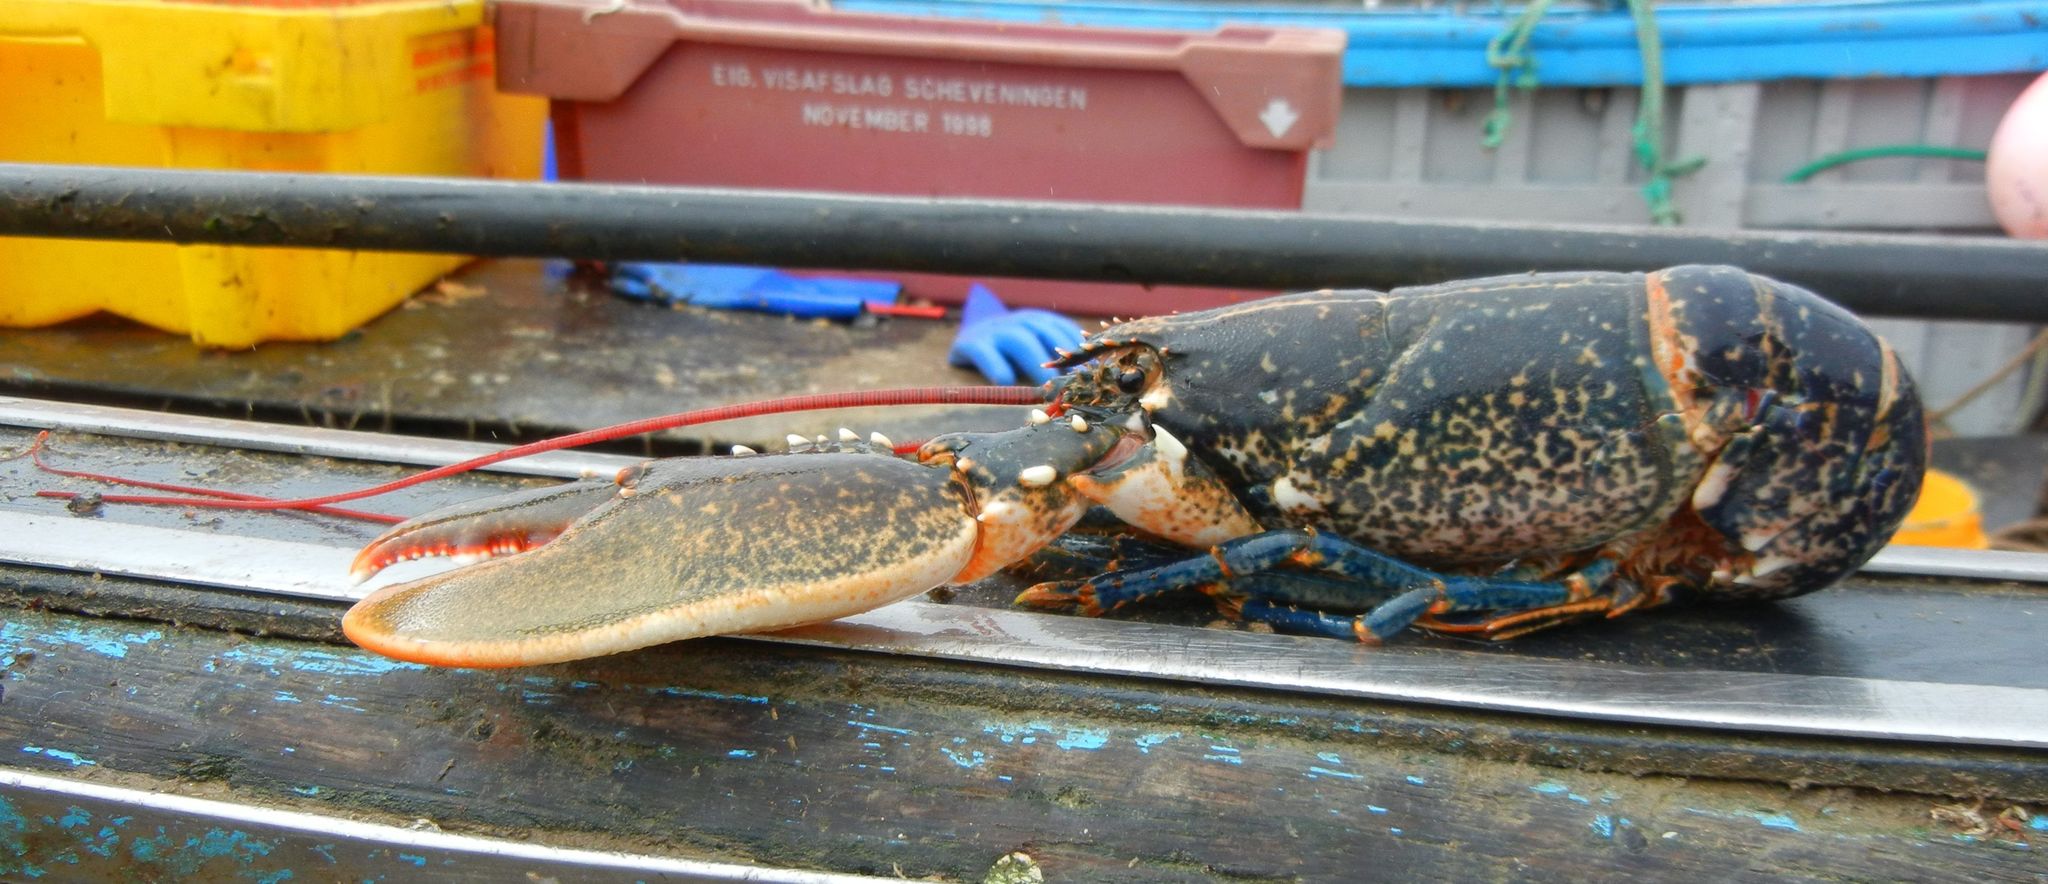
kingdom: Animalia
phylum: Arthropoda
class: Malacostraca
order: Decapoda
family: Nephropidae
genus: Homarus
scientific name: Homarus gammarus
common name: European lobster
